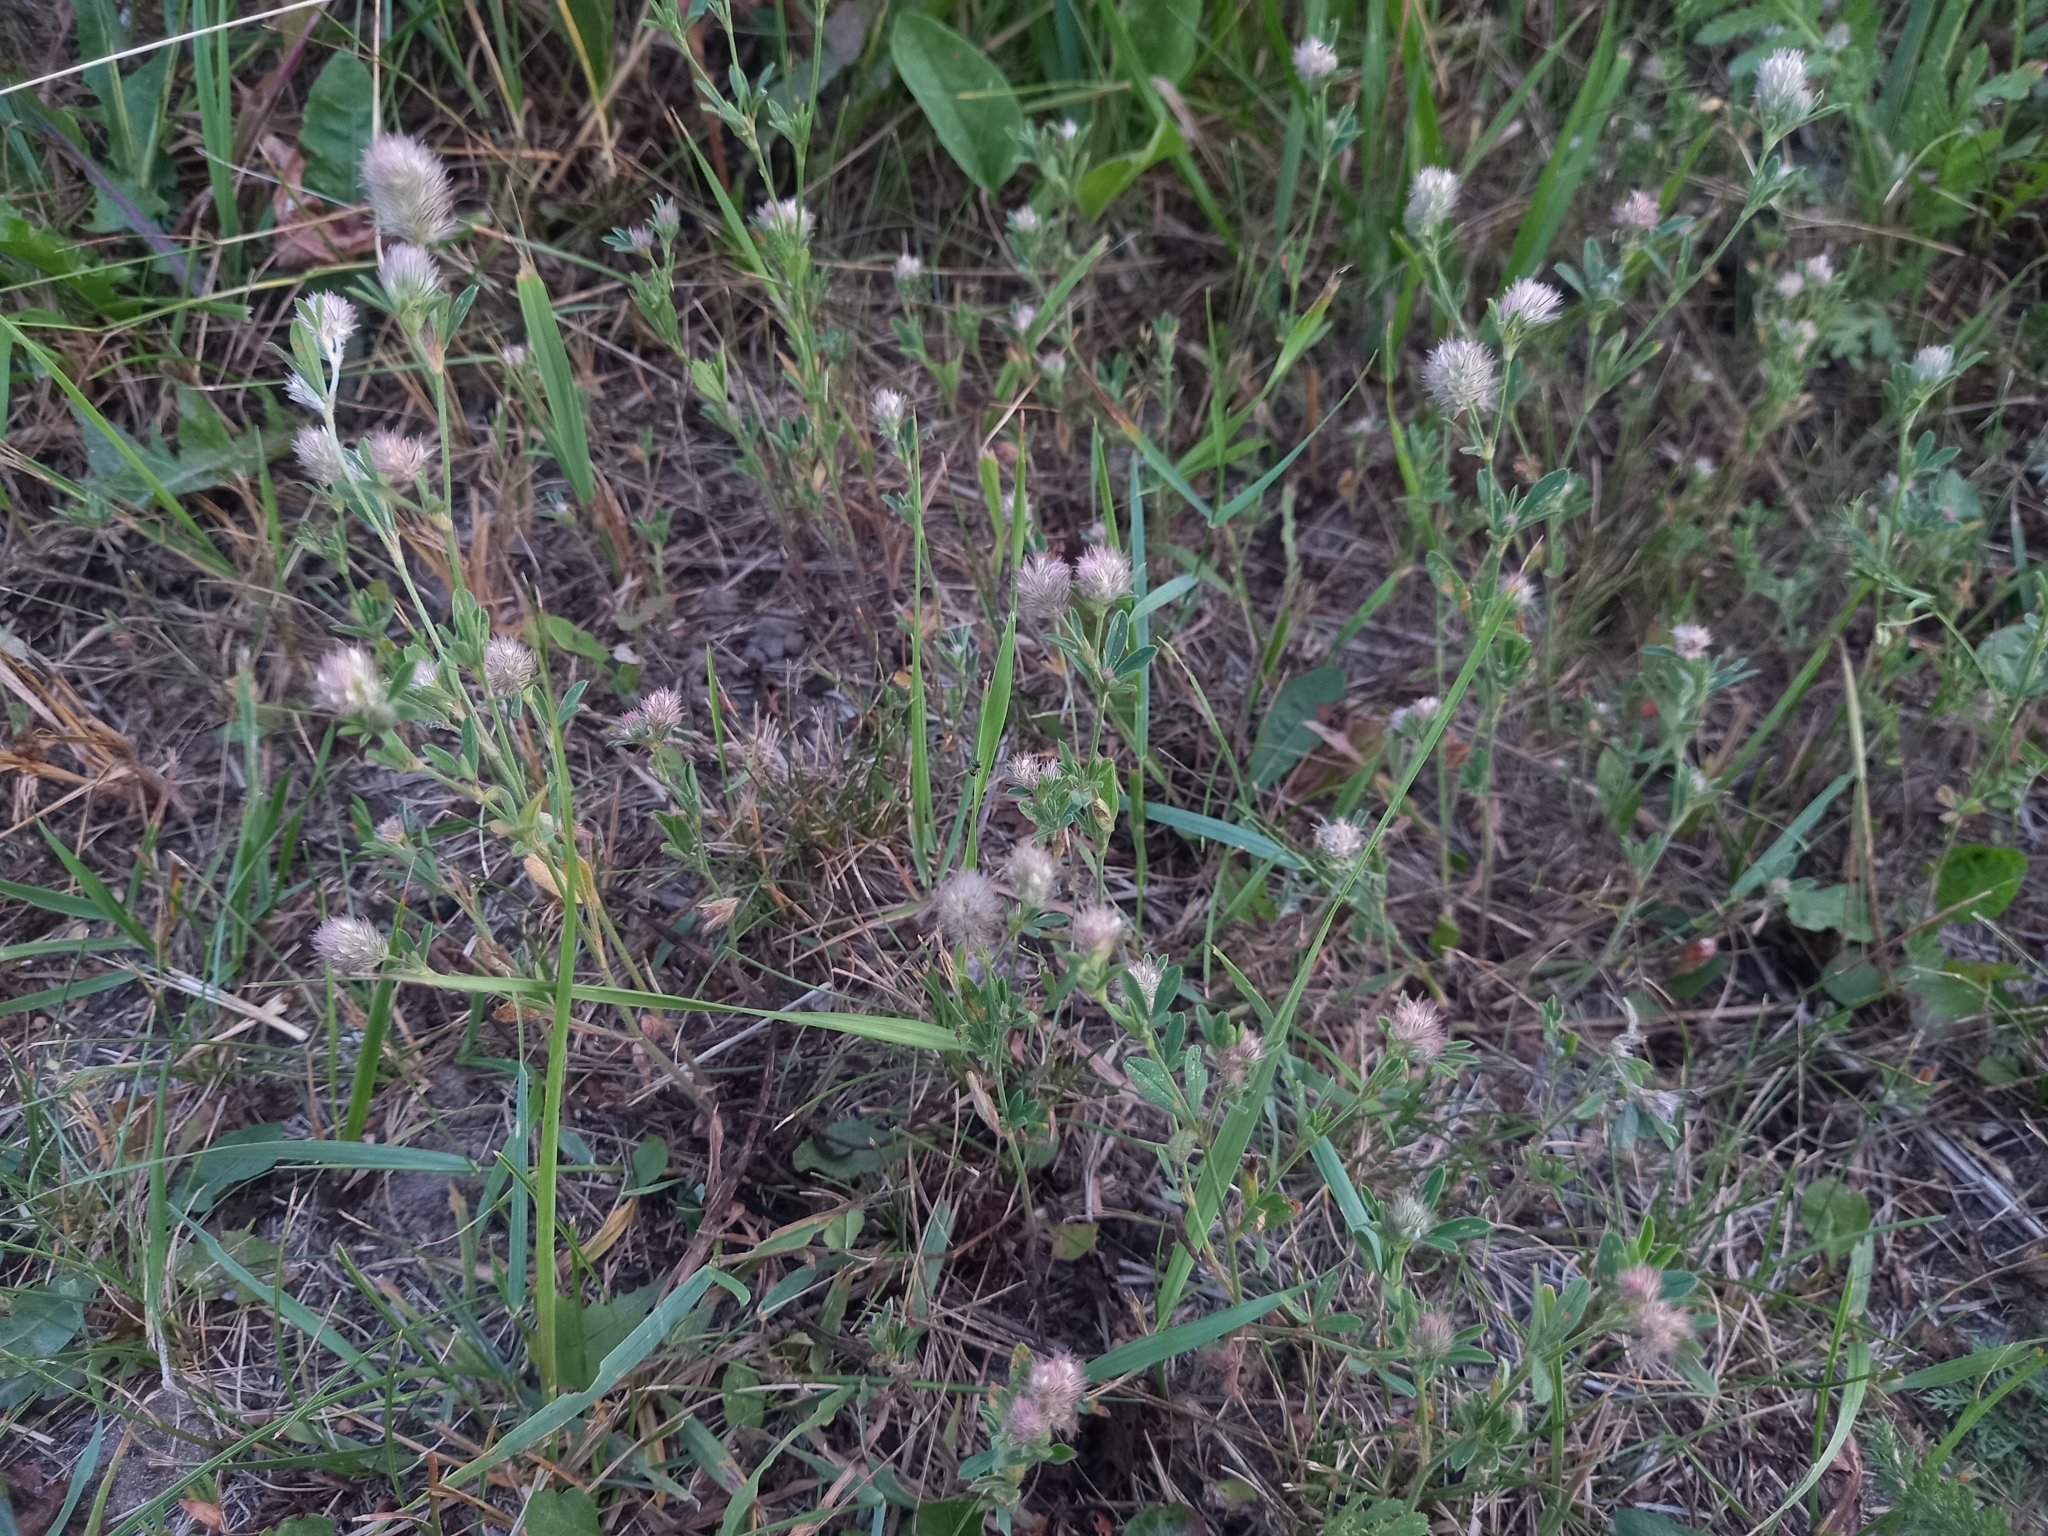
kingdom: Plantae
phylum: Tracheophyta
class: Magnoliopsida
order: Fabales
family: Fabaceae
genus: Trifolium
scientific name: Trifolium arvense
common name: Hare's-foot clover
